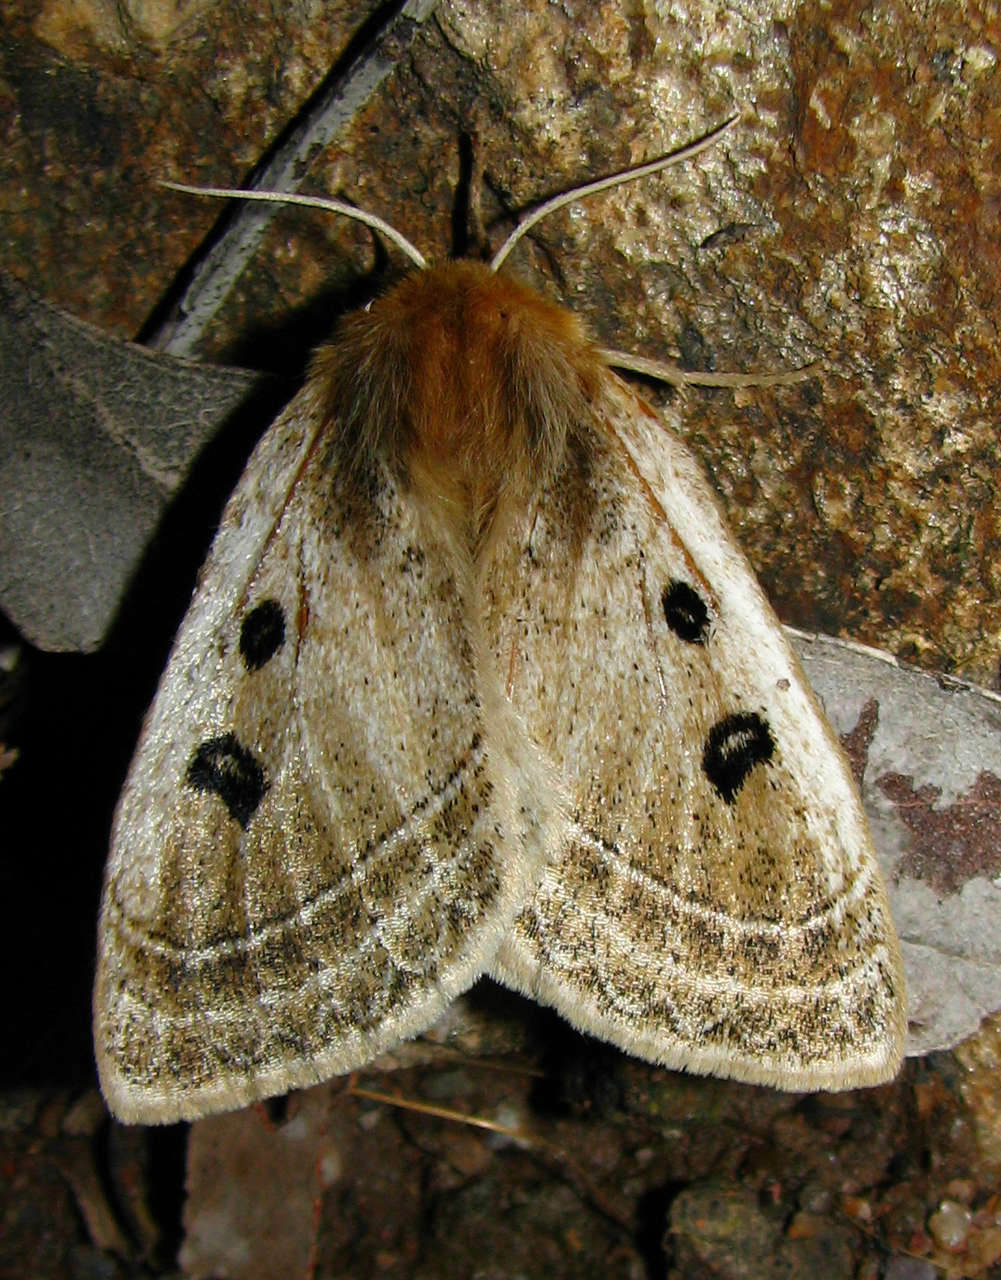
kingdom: Animalia
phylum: Arthropoda
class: Insecta
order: Lepidoptera
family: Anthelidae
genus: Anthela
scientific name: Anthela ocellata
